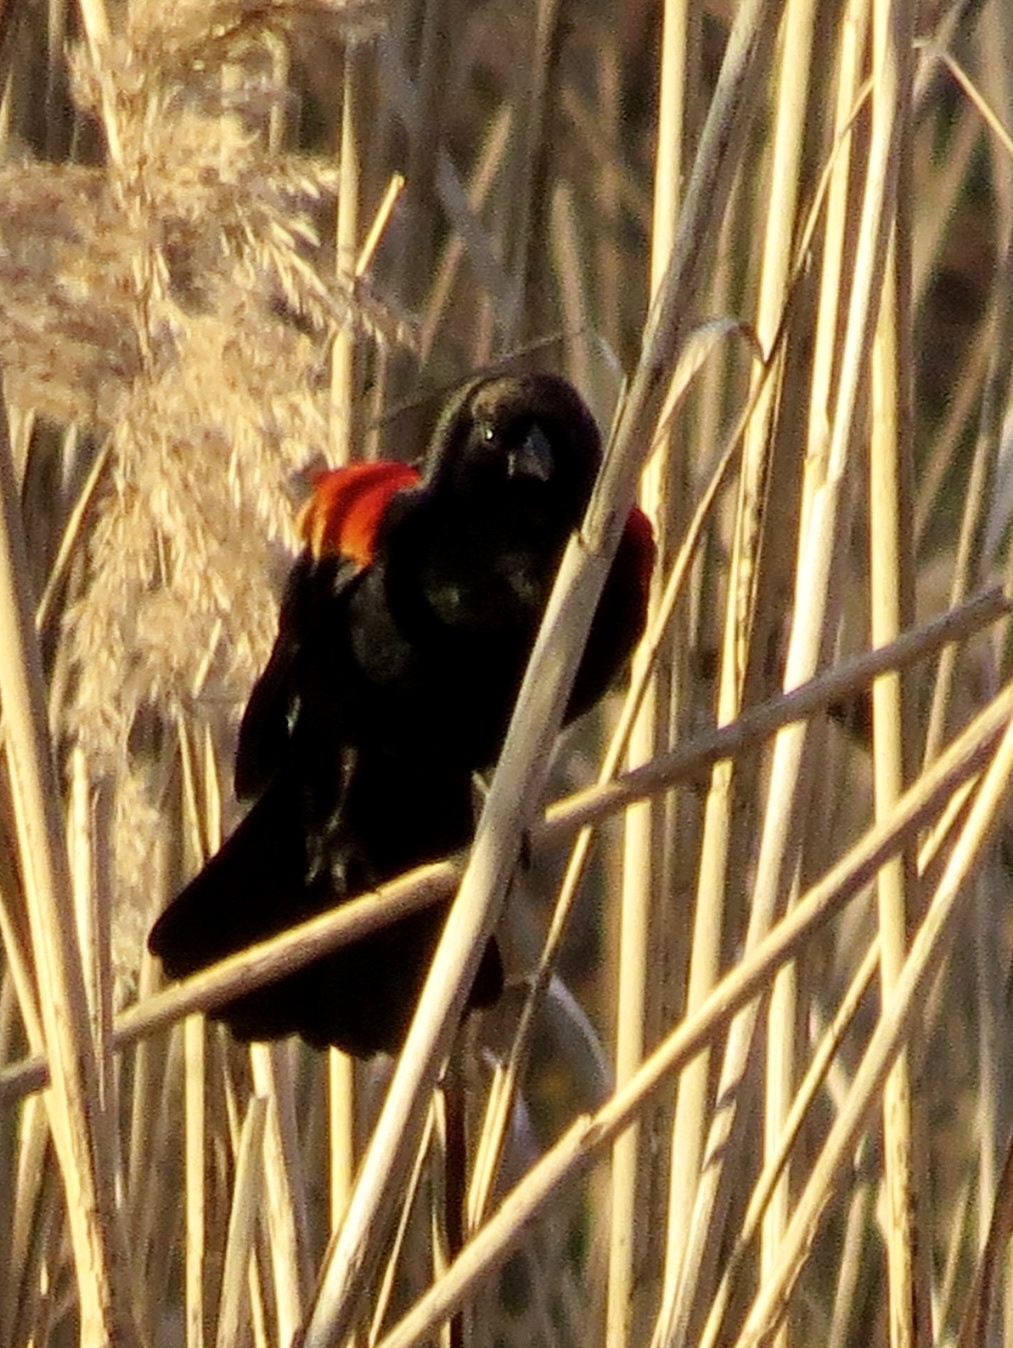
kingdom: Animalia
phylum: Chordata
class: Aves
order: Passeriformes
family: Icteridae
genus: Agelaius
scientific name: Agelaius phoeniceus
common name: Red-winged blackbird
